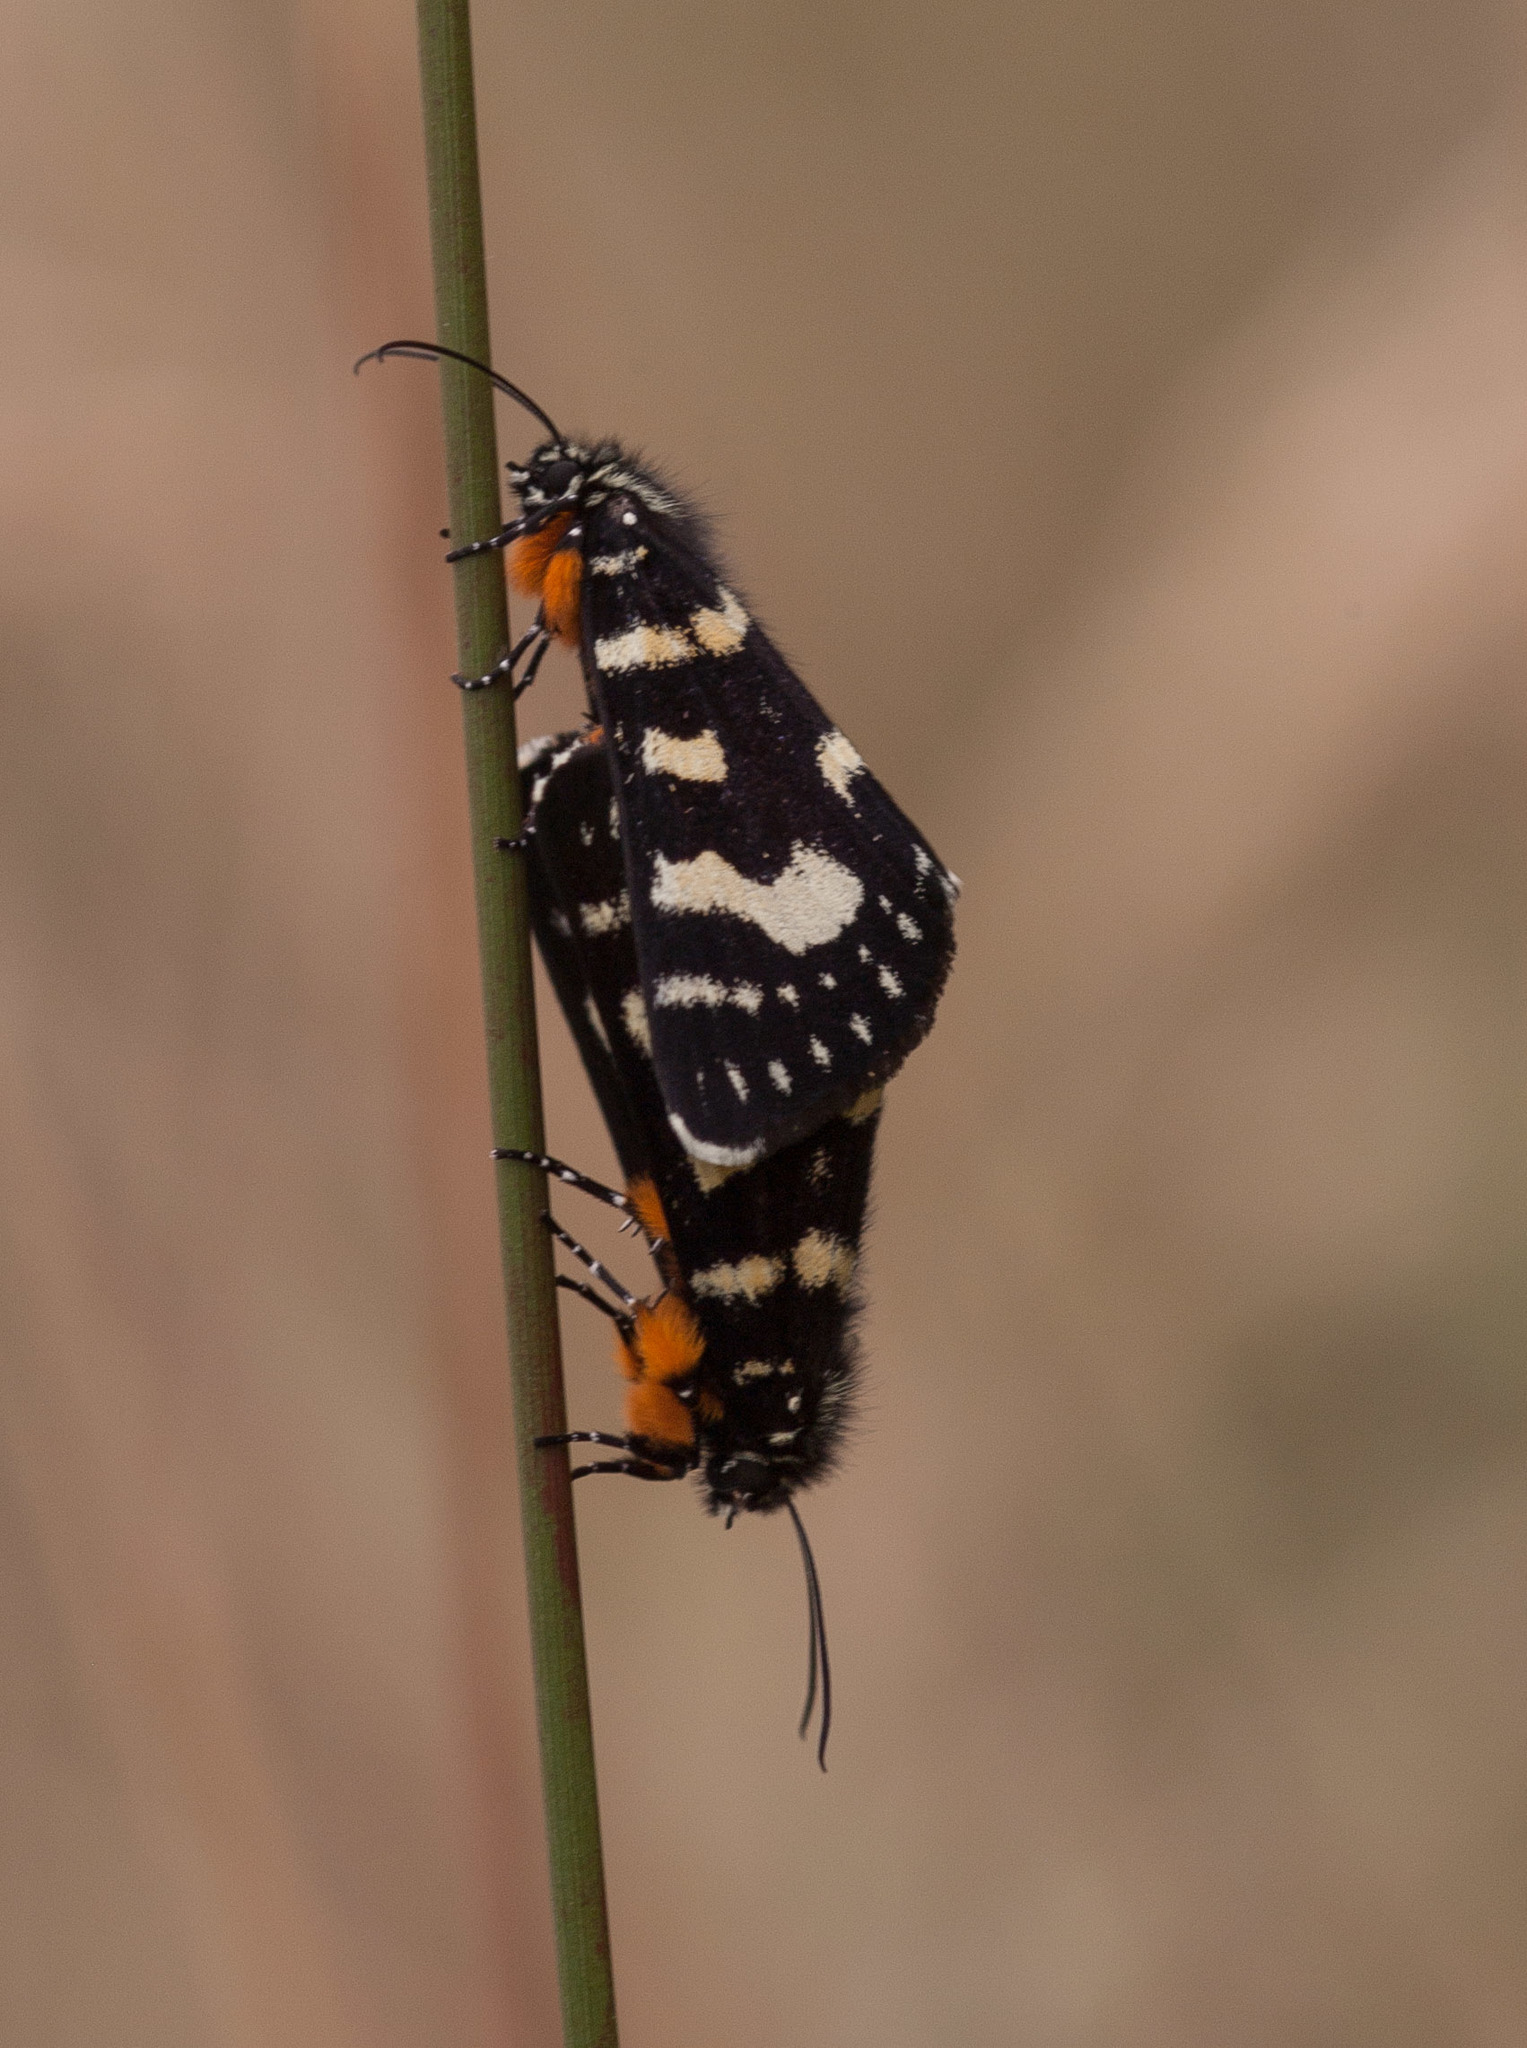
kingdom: Animalia
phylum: Arthropoda
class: Insecta
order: Lepidoptera
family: Noctuidae
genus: Phalaenoides
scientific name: Phalaenoides tristifica
